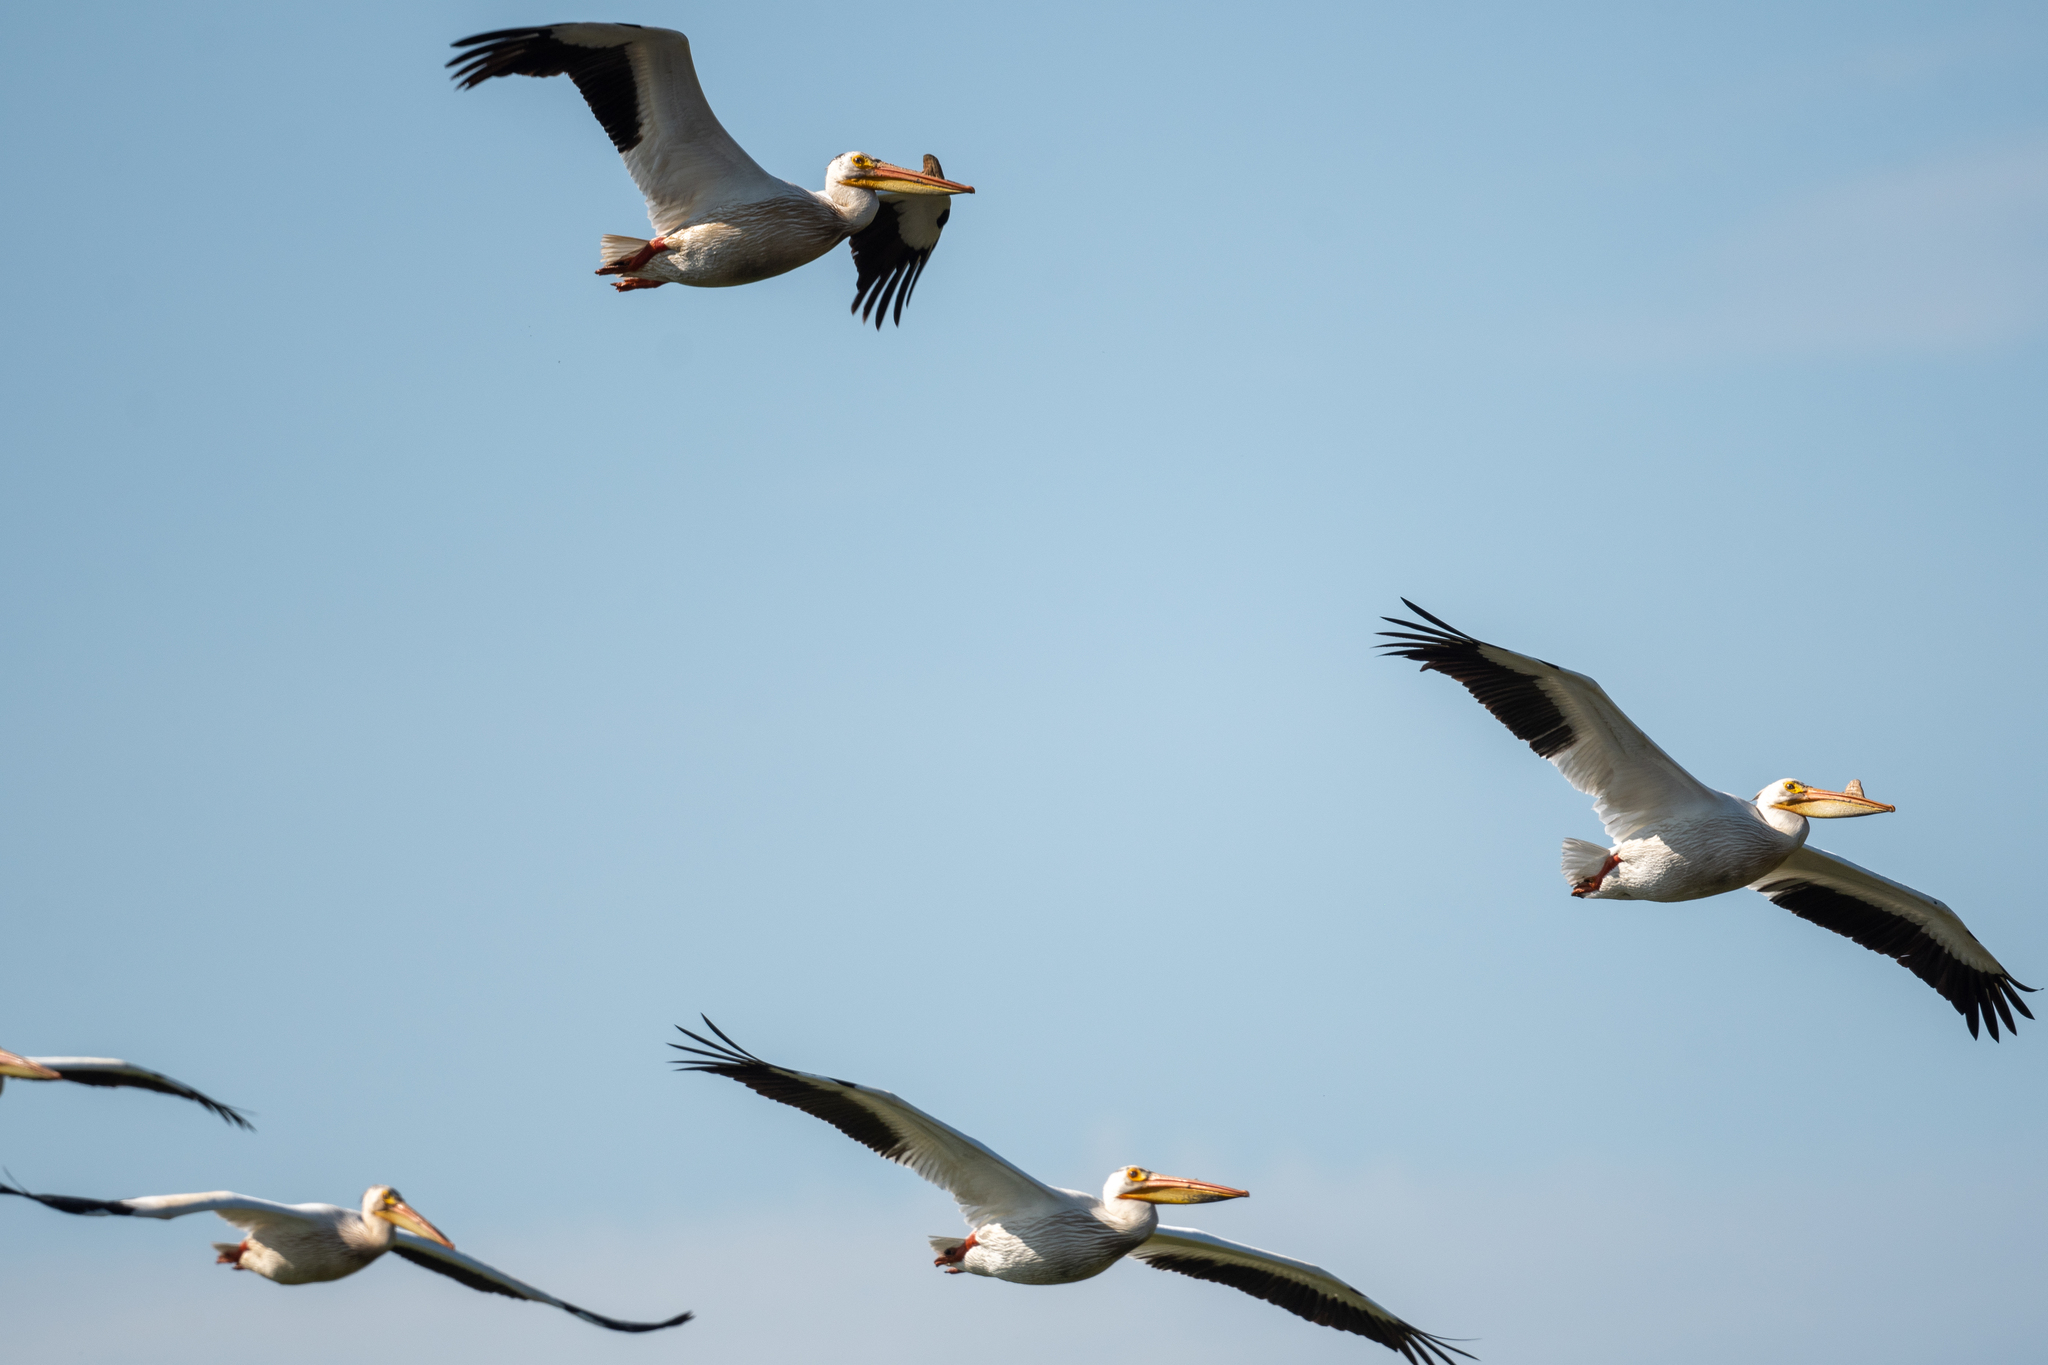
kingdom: Animalia
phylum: Chordata
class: Aves
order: Pelecaniformes
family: Pelecanidae
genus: Pelecanus
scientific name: Pelecanus erythrorhynchos
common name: American white pelican
